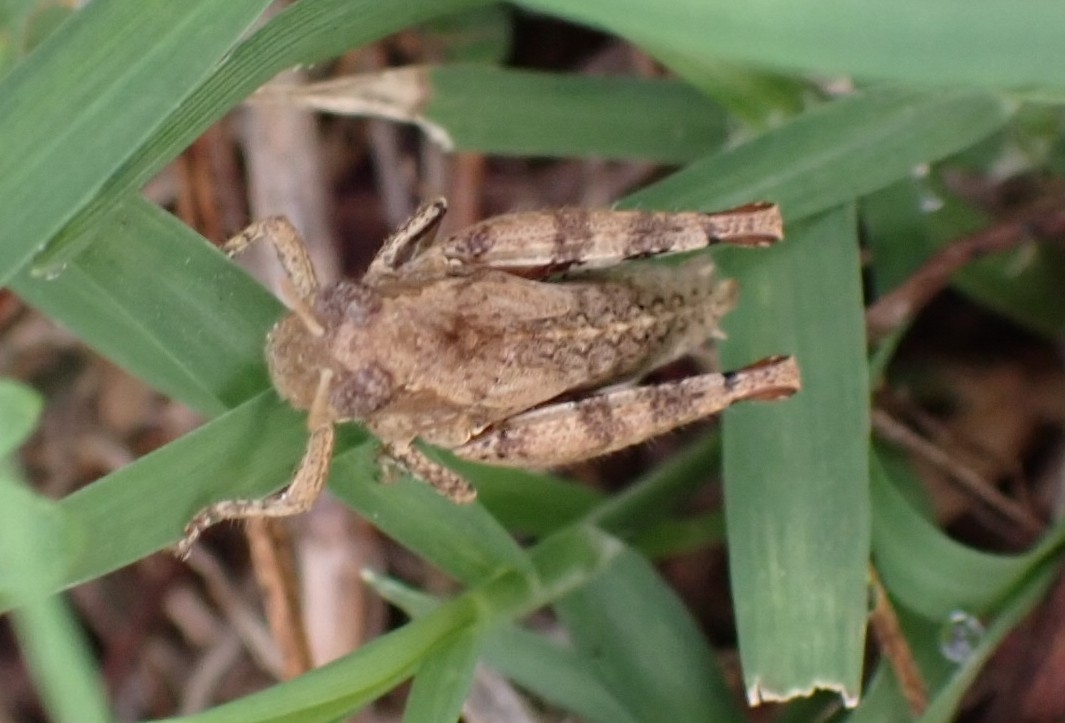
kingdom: Animalia
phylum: Arthropoda
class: Insecta
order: Orthoptera
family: Acrididae
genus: Pezotettix
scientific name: Pezotettix giornae
